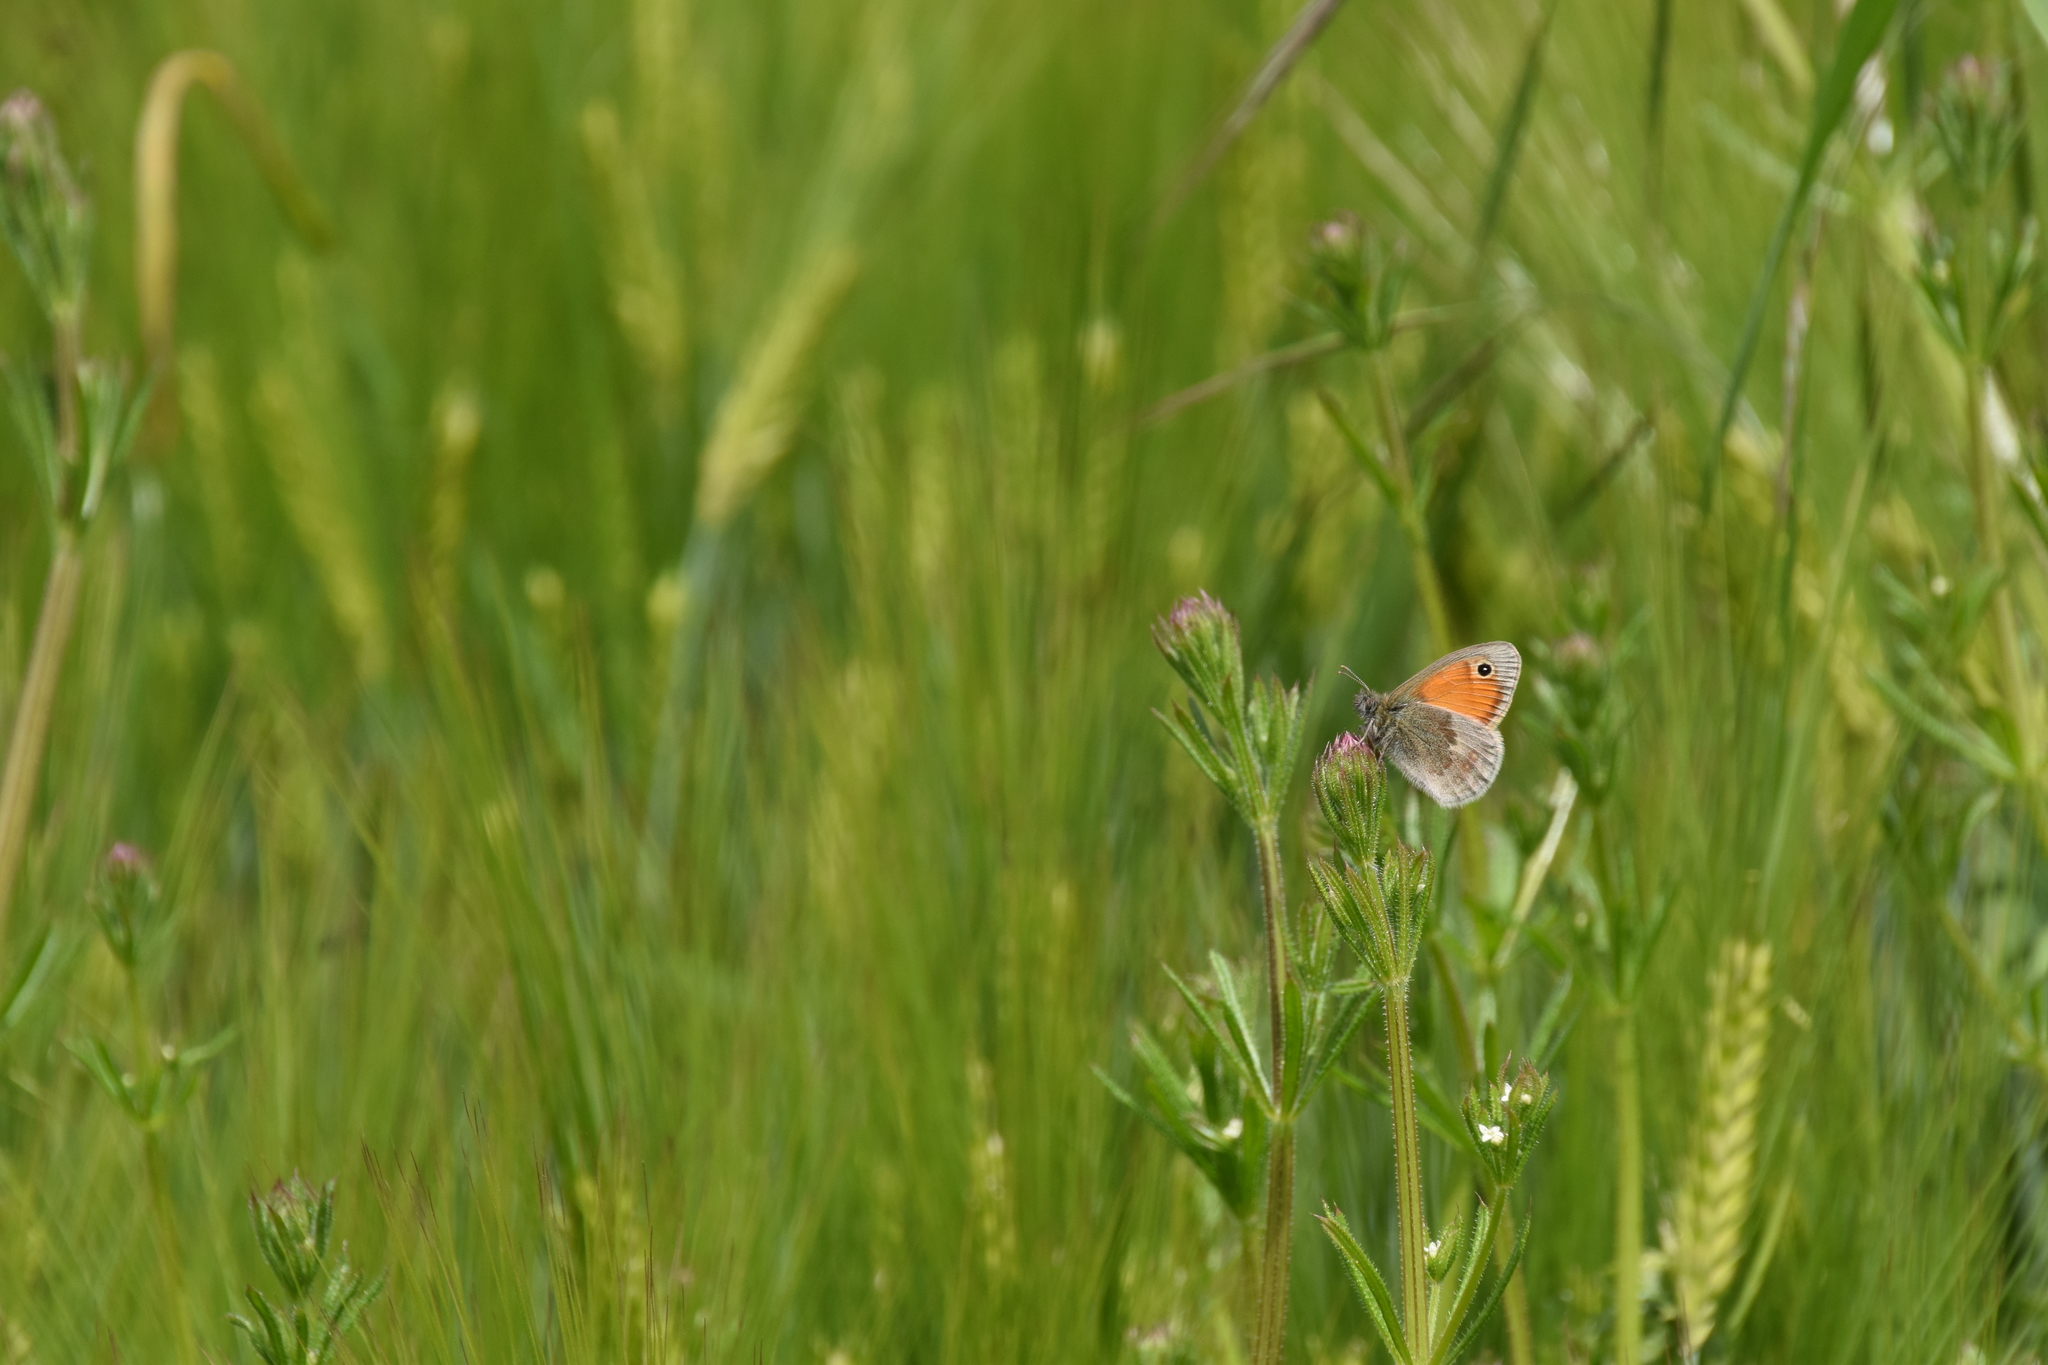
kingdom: Animalia
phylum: Arthropoda
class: Insecta
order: Lepidoptera
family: Nymphalidae
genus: Coenonympha
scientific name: Coenonympha pamphilus
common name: Small heath
